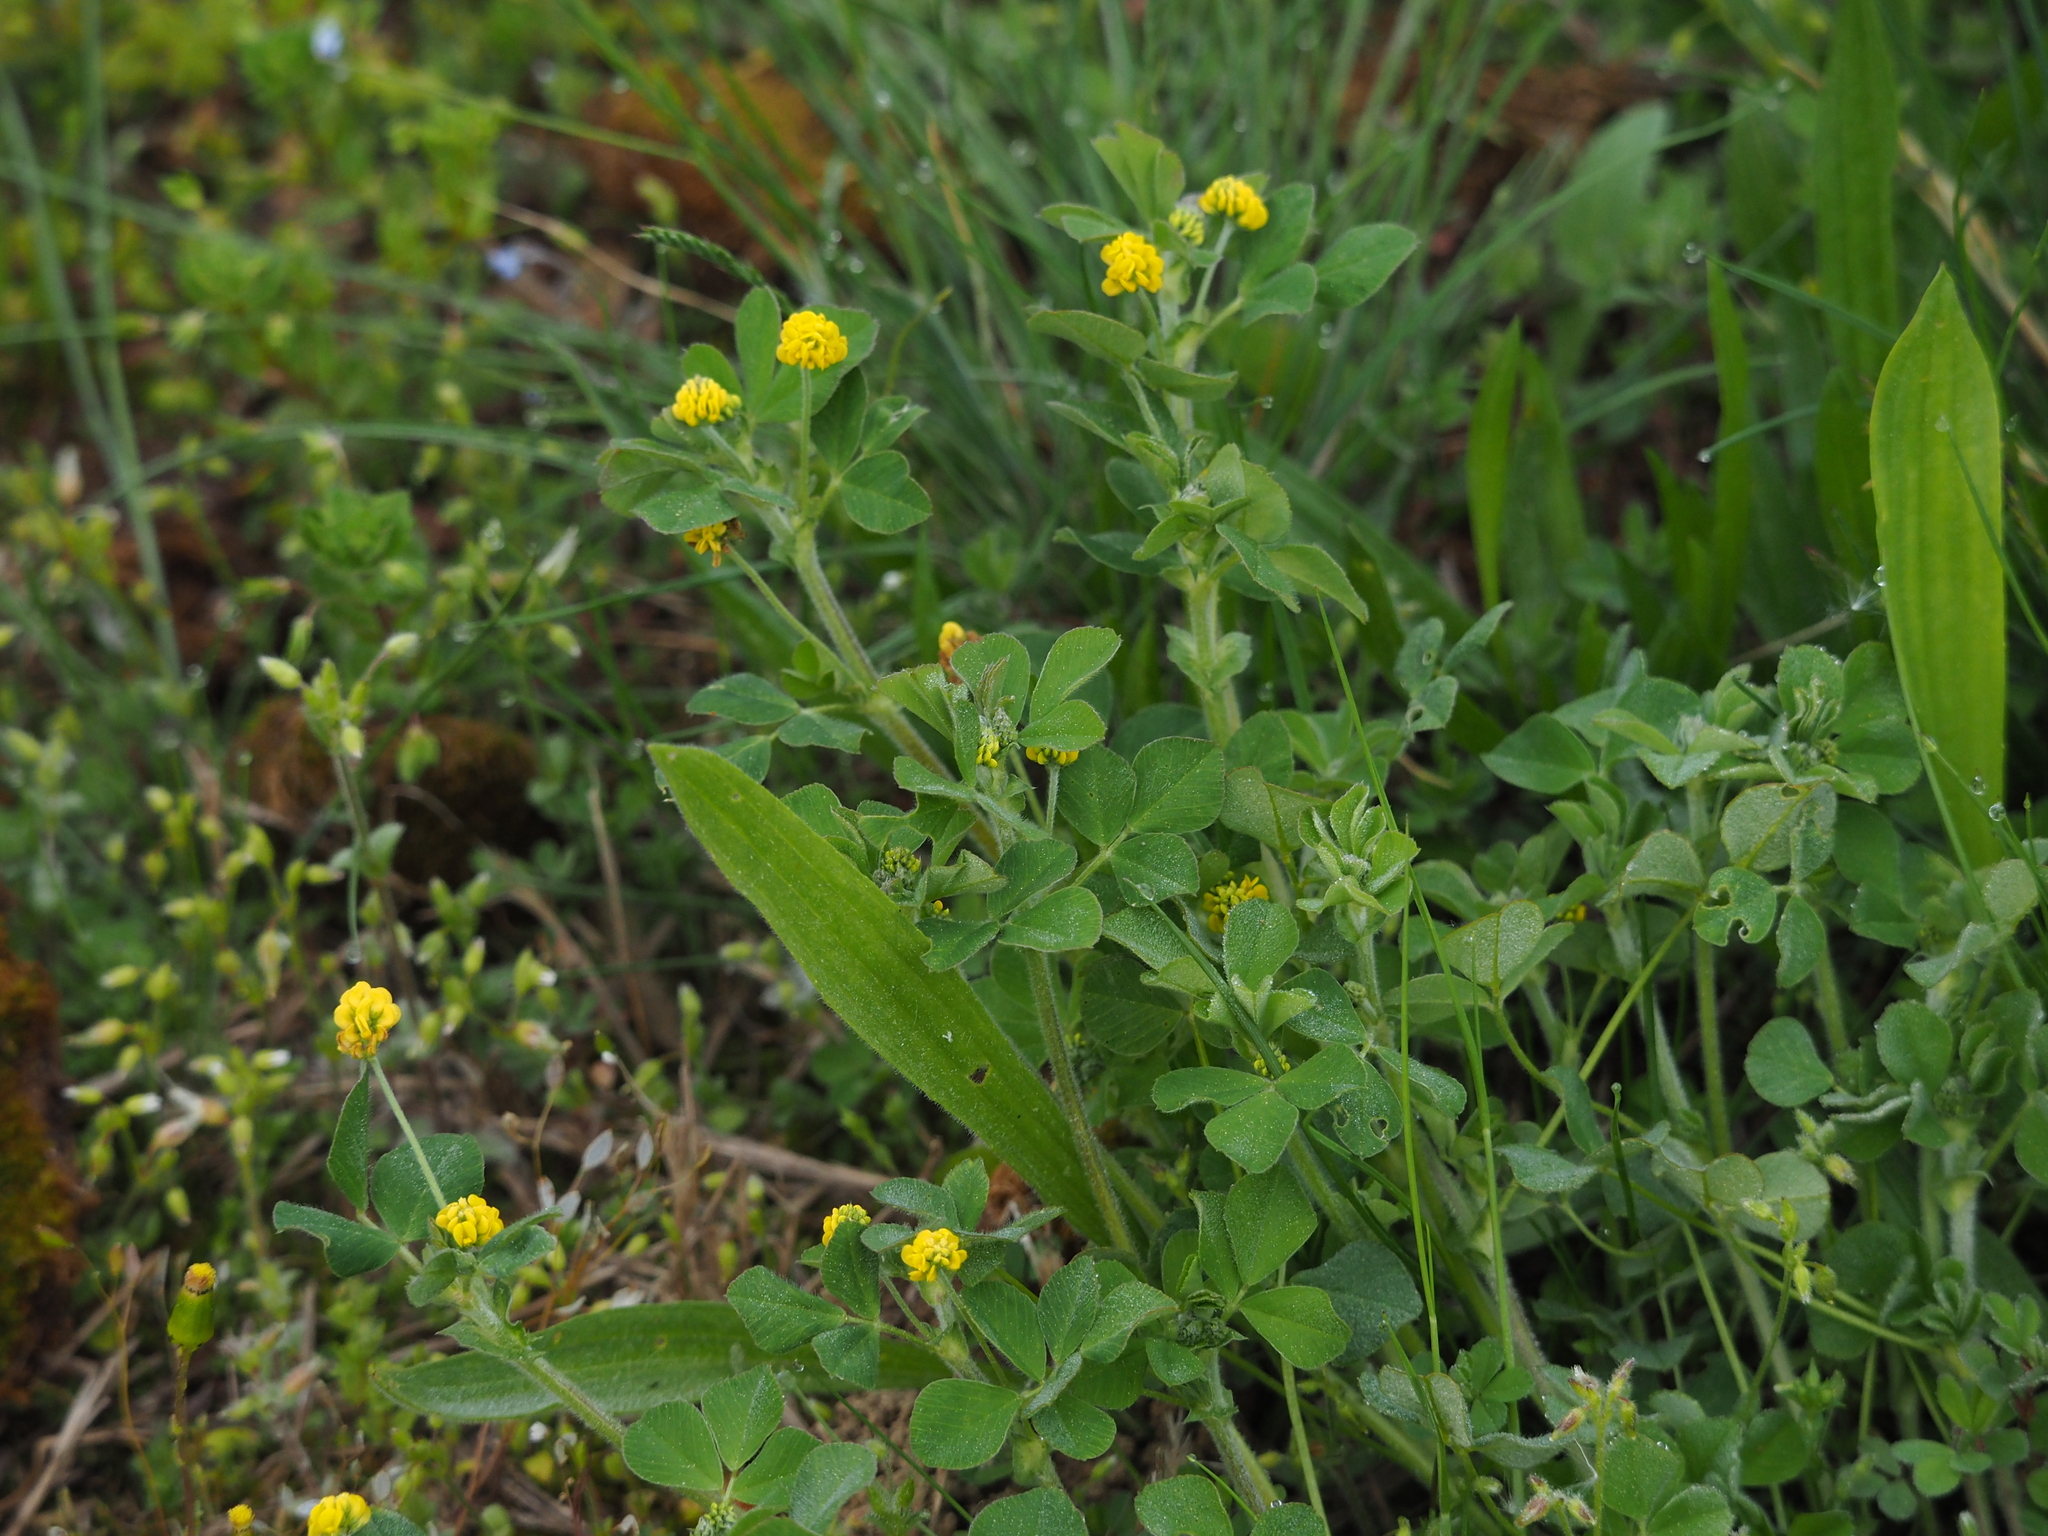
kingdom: Plantae
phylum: Tracheophyta
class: Magnoliopsida
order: Fabales
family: Fabaceae
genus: Medicago
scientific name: Medicago lupulina
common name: Black medick
